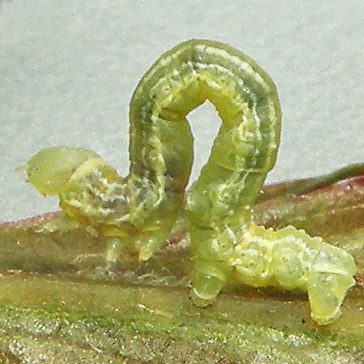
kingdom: Animalia
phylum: Arthropoda
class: Insecta
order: Lepidoptera
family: Geometridae
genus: Alsophila
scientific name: Alsophila pometaria
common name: Fall cankerworm
